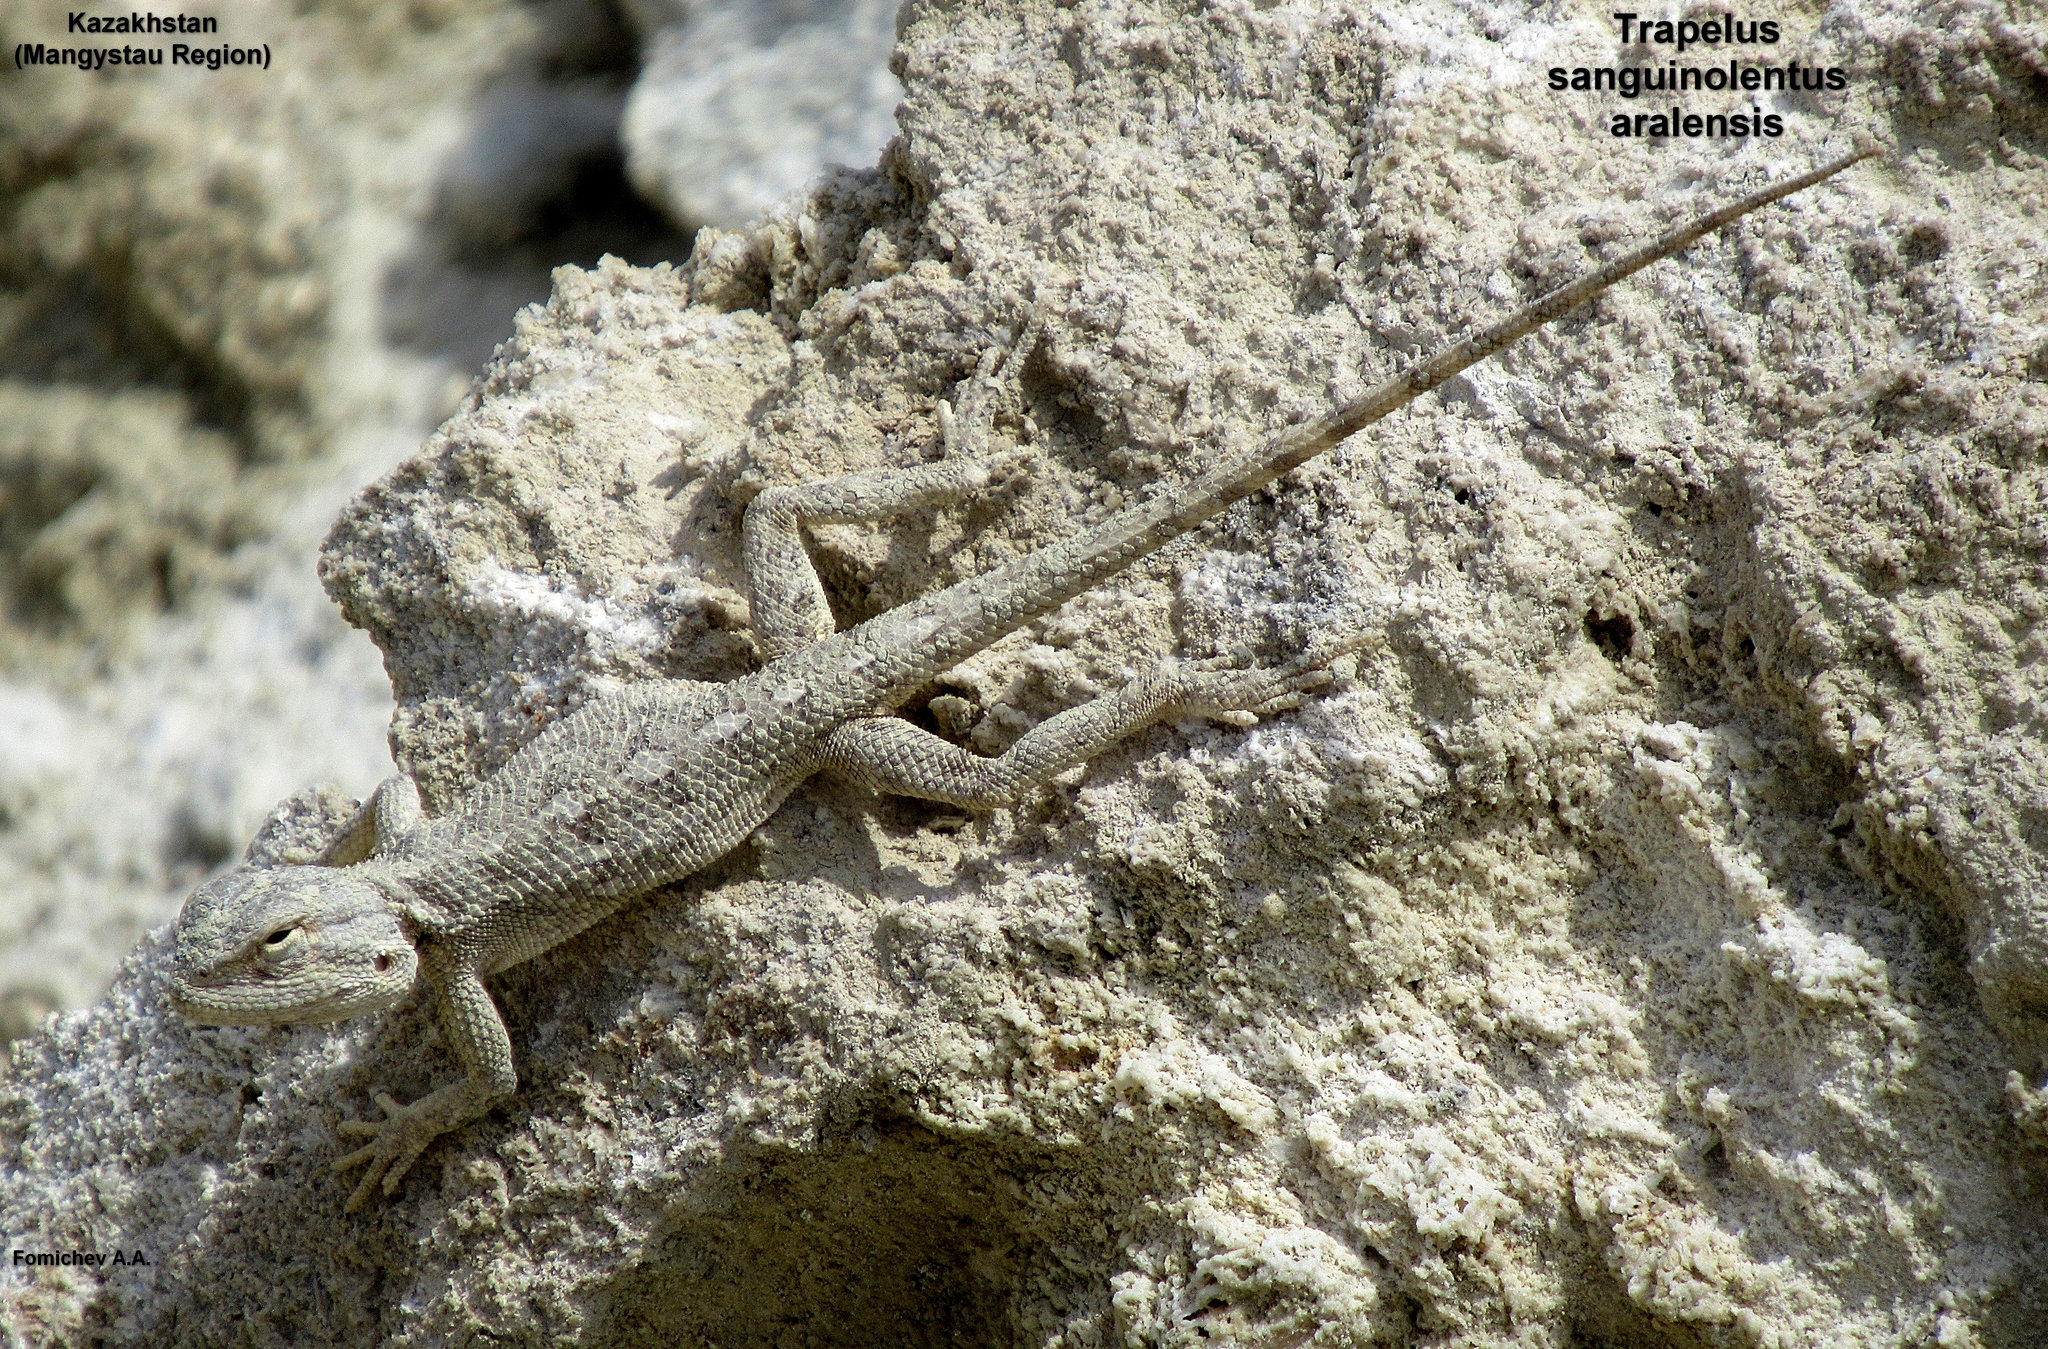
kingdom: Animalia
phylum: Chordata
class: Squamata
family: Agamidae
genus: Trapelus
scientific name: Trapelus sanguinolentus
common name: Steppe agama
